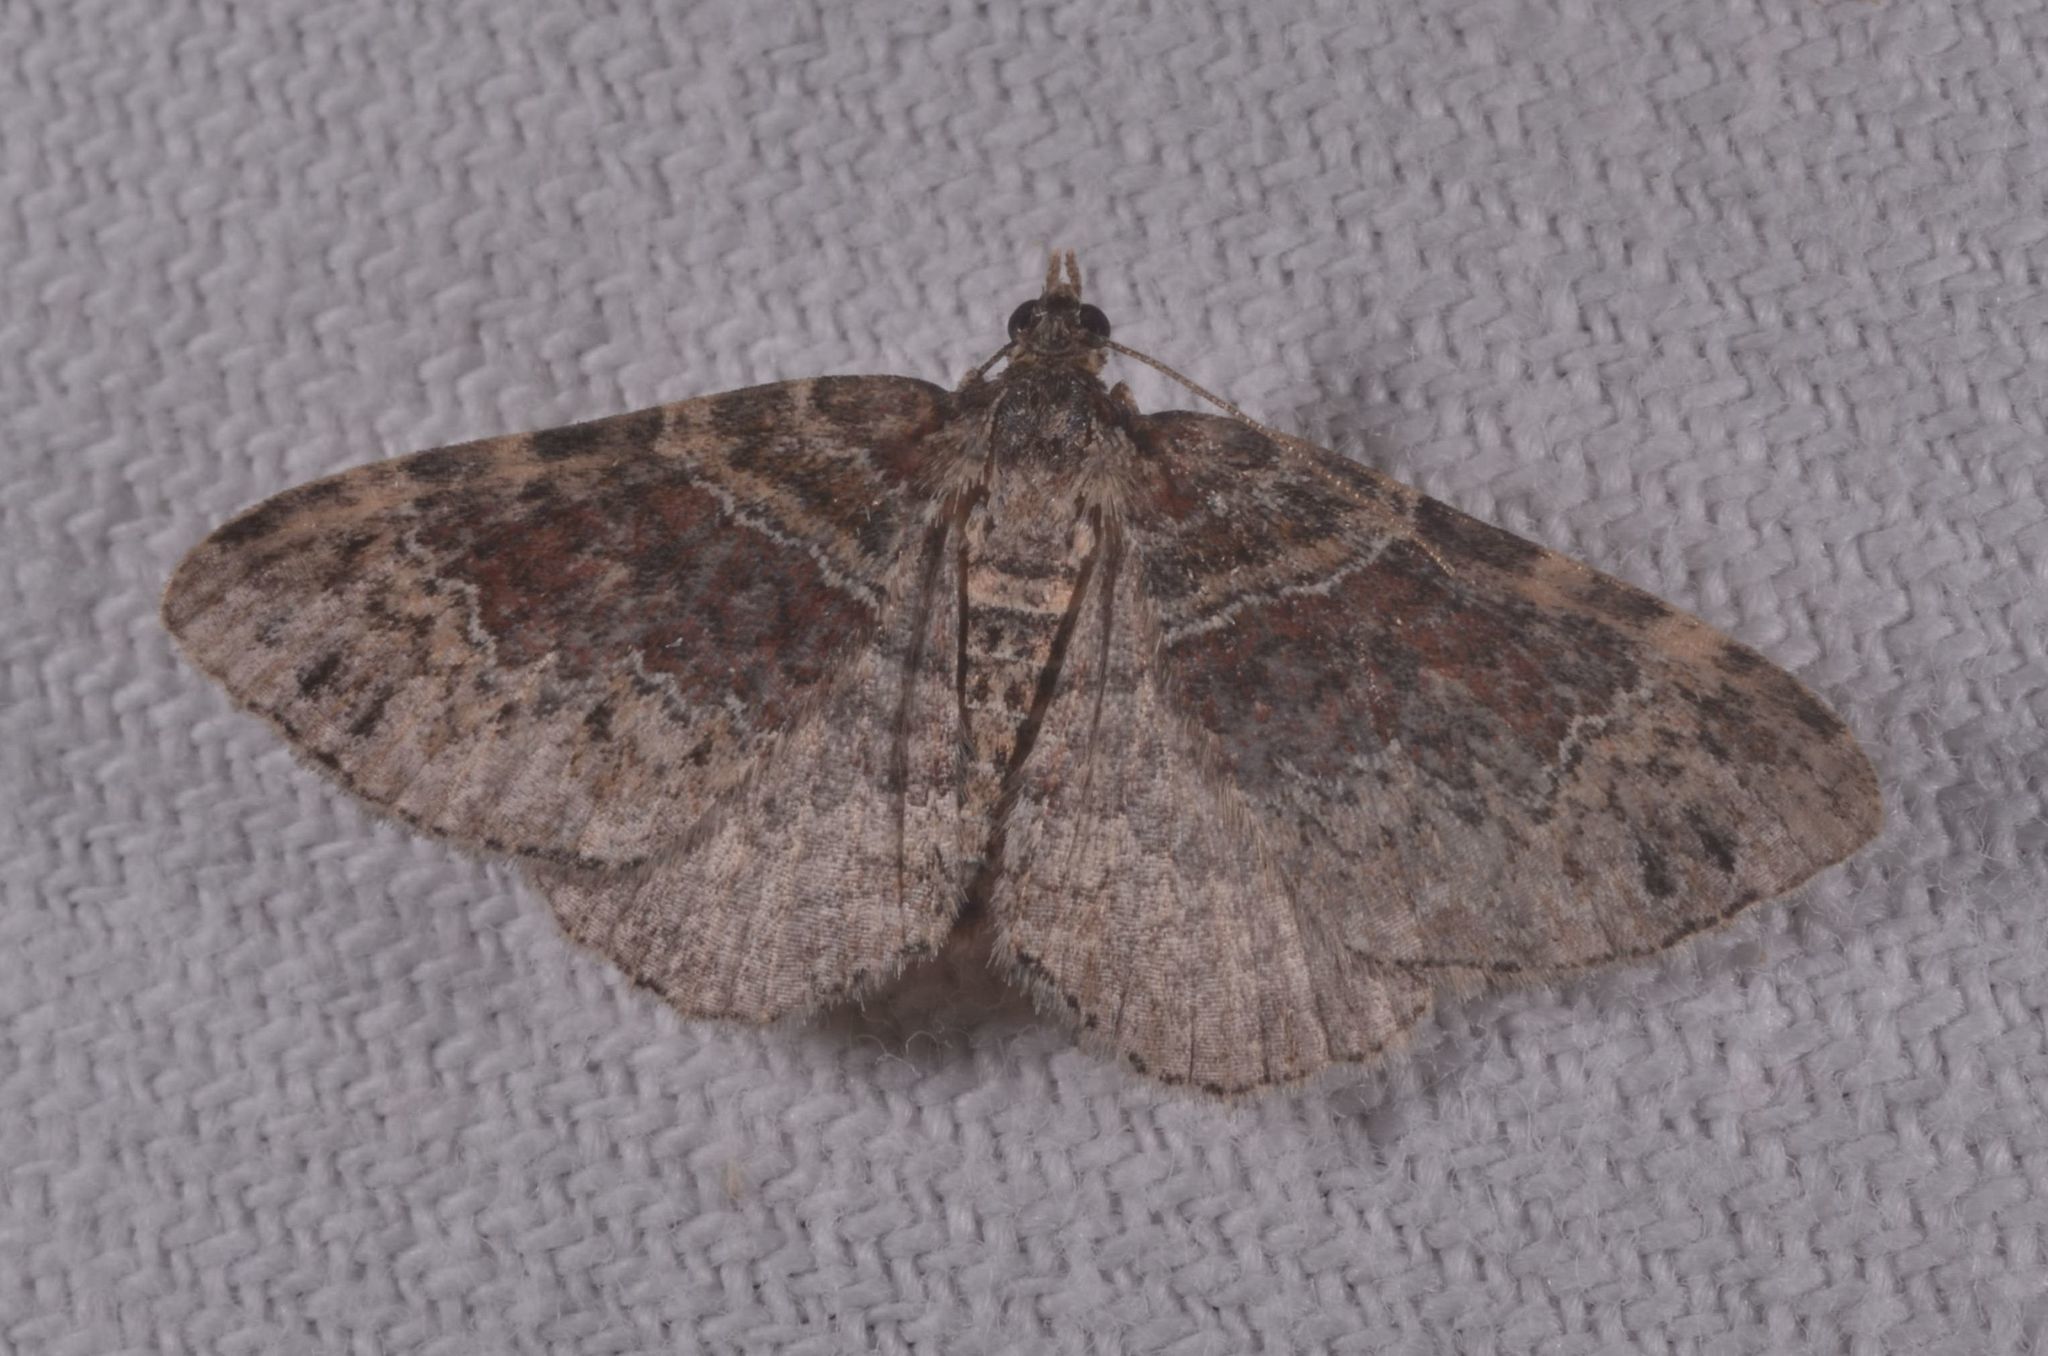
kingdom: Animalia
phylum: Arthropoda
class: Insecta
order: Lepidoptera
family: Geometridae
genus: Xanthorhoe
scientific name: Xanthorhoe ferrugata
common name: Dark-barred twin-spot carpet
